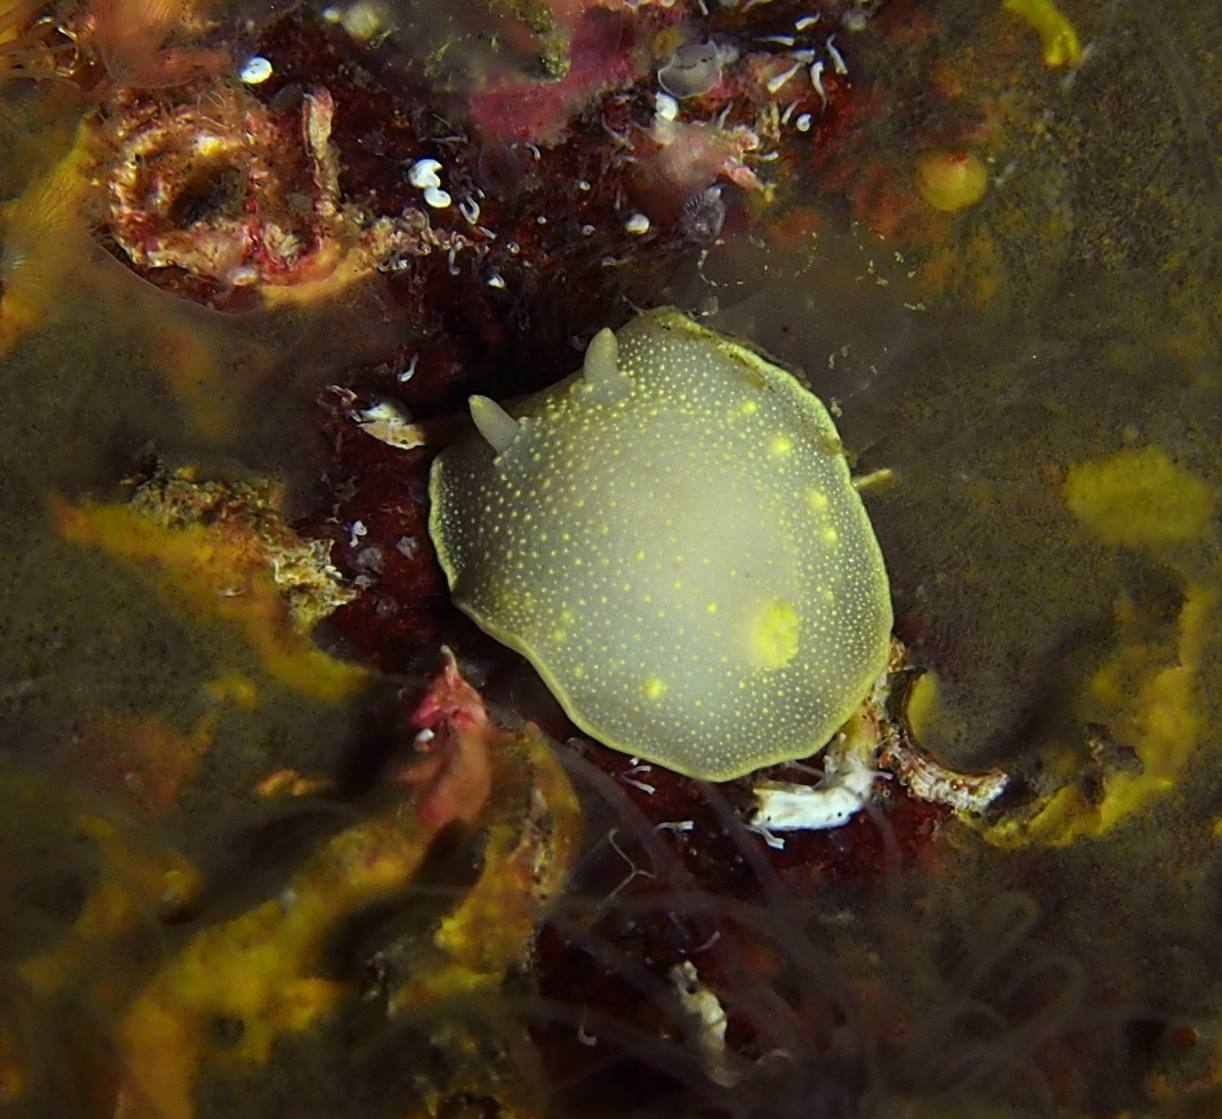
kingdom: Animalia
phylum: Mollusca
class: Gastropoda
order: Nudibranchia
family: Cadlinidae
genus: Cadlina
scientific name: Cadlina laevis
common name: White atlantic cadlina
